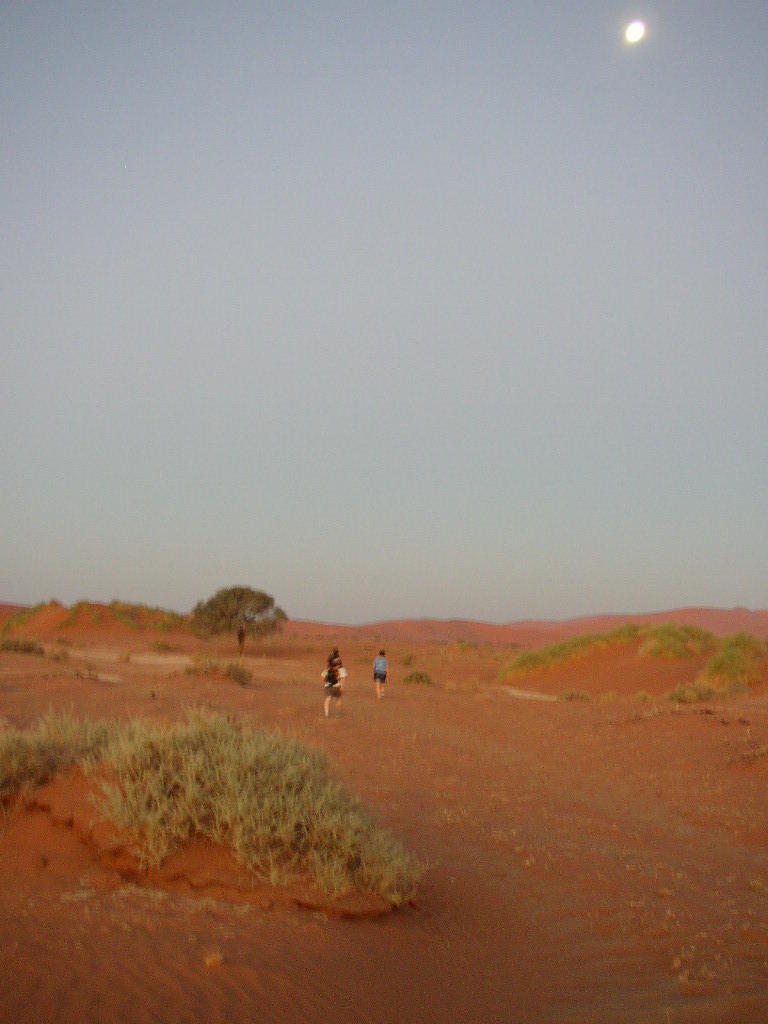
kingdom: Plantae
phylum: Tracheophyta
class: Magnoliopsida
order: Cucurbitales
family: Cucurbitaceae
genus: Acanthosicyos
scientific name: Acanthosicyos horridus
